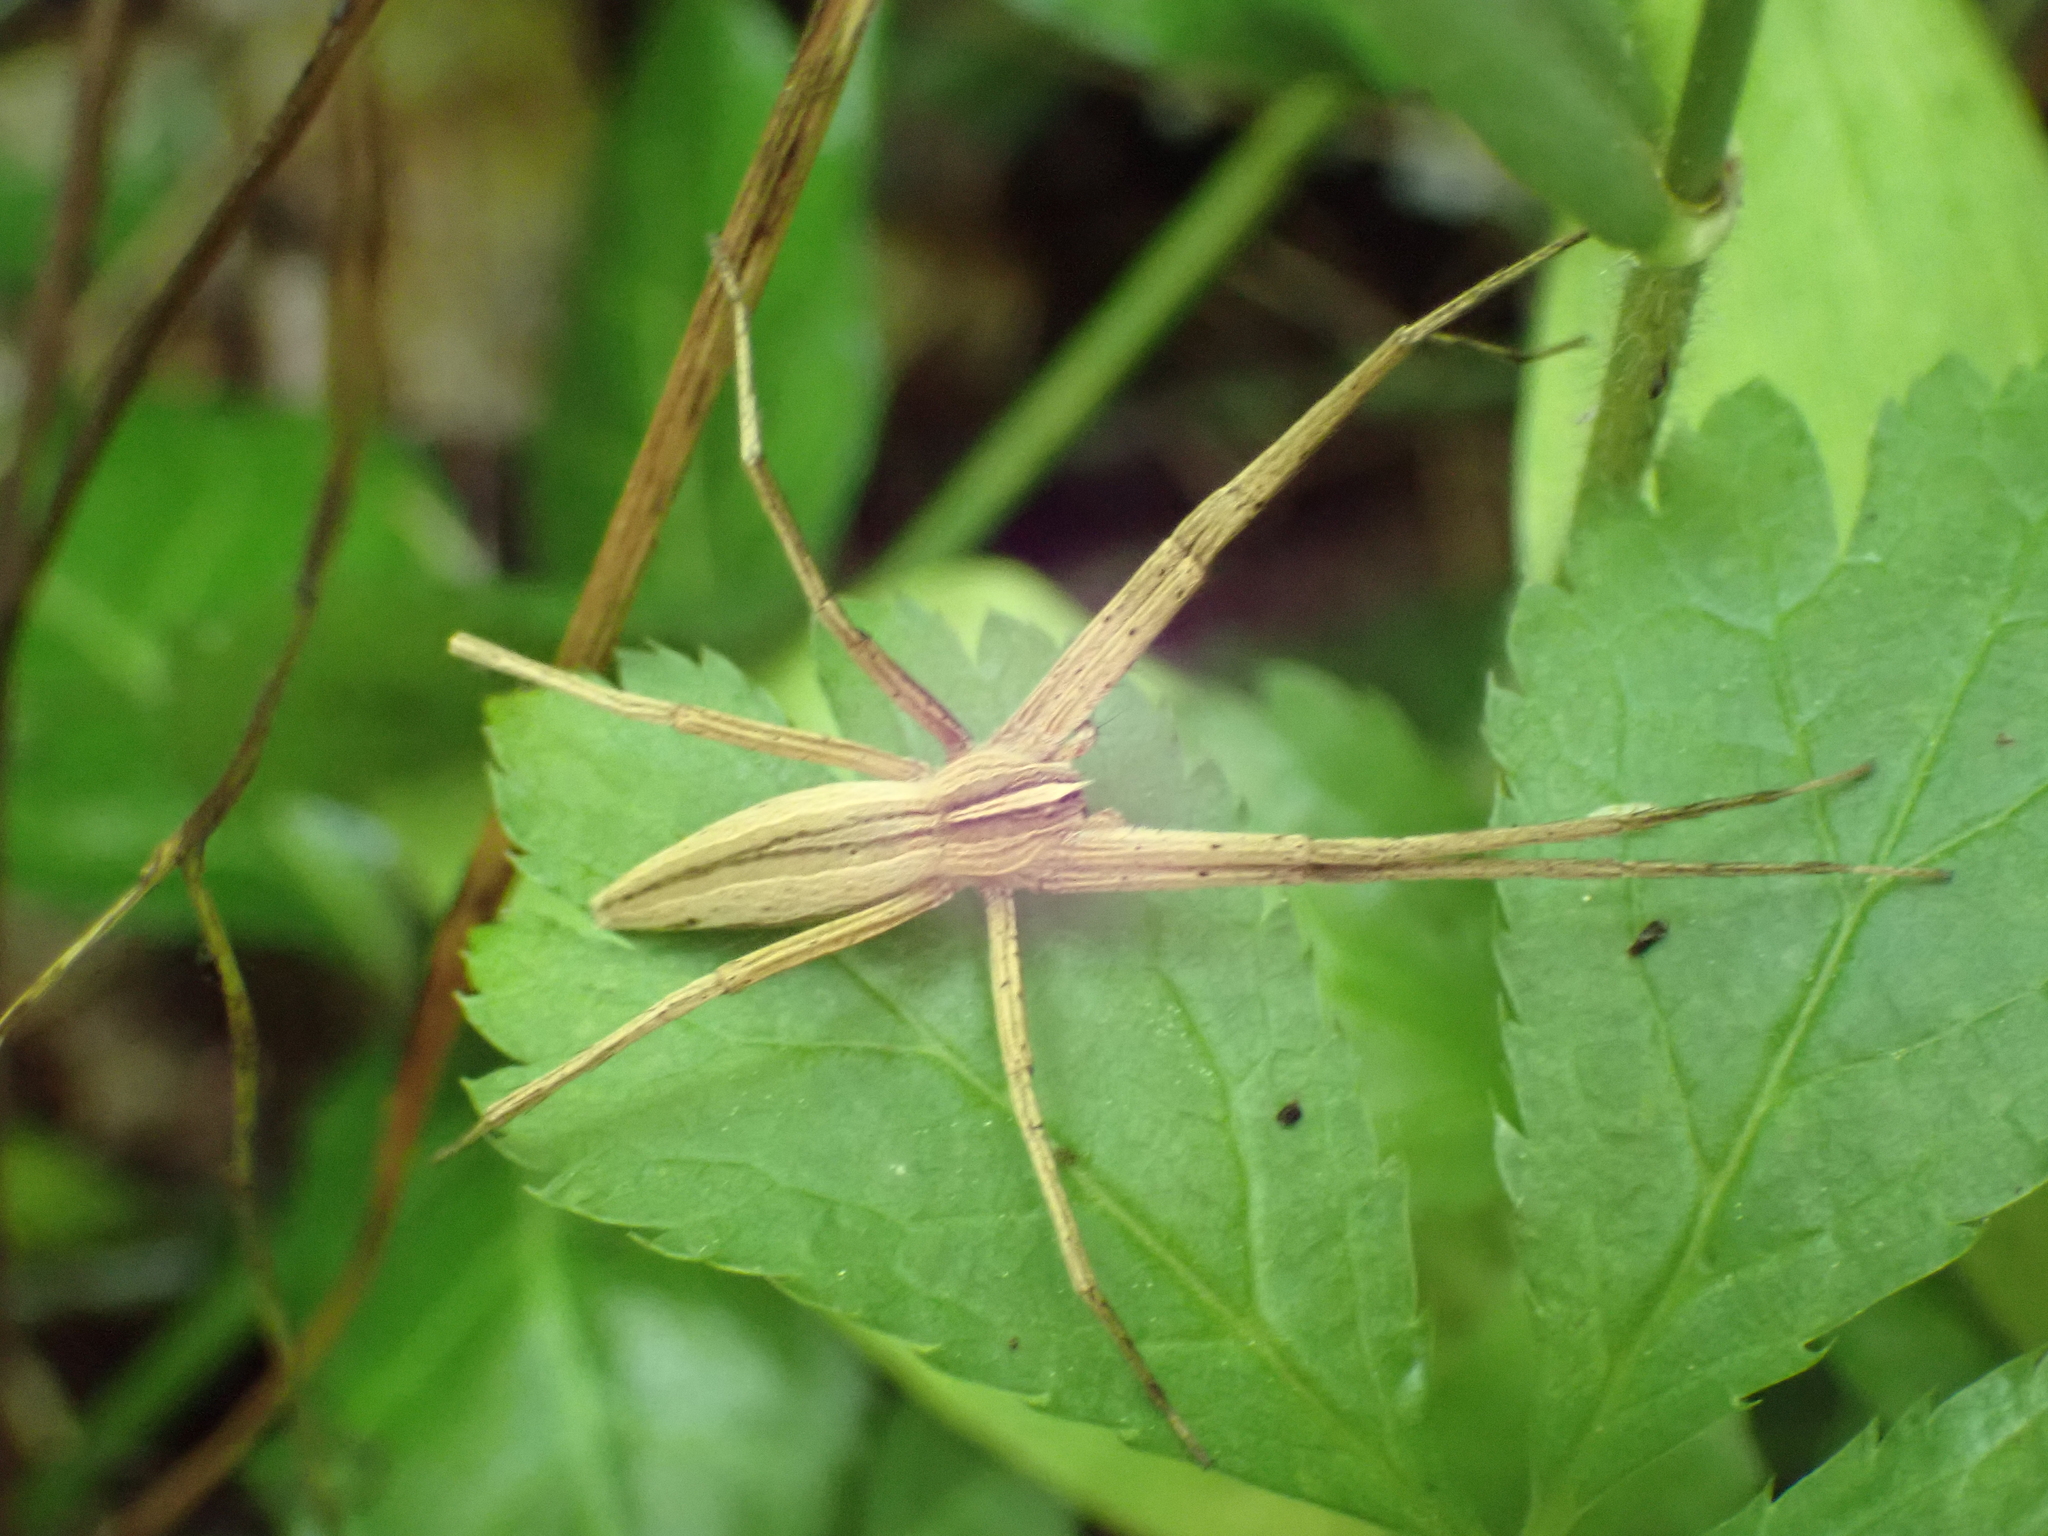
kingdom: Animalia
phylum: Arthropoda
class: Arachnida
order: Araneae
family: Pisauridae
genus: Pisaurina
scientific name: Pisaurina dubia
